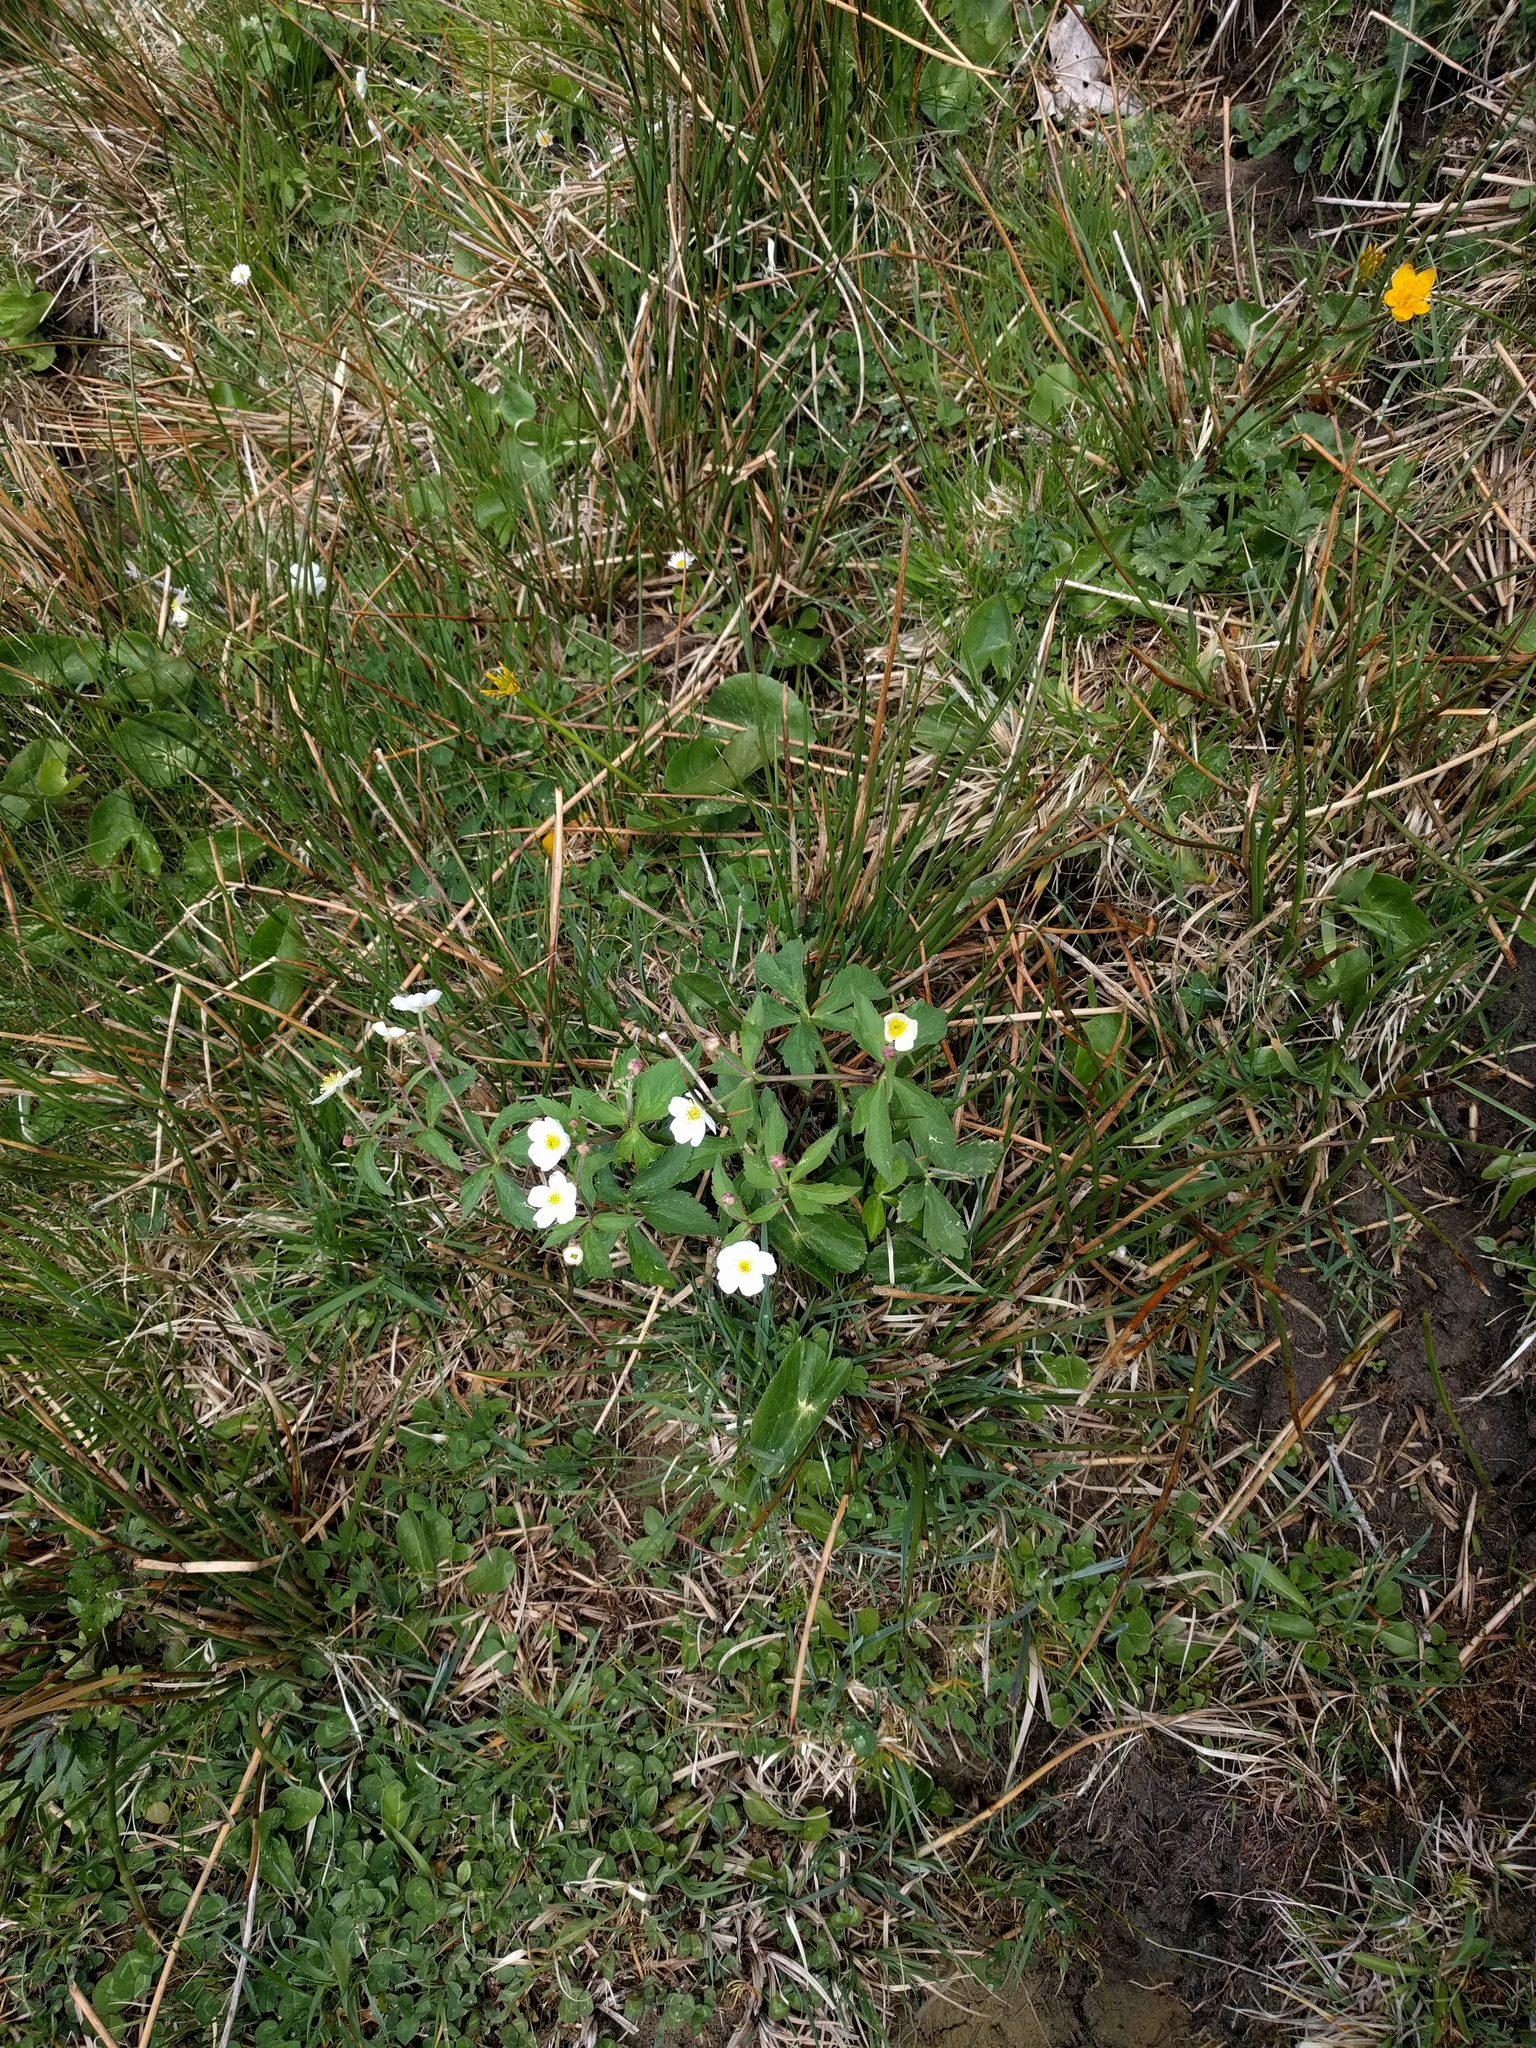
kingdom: Plantae
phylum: Tracheophyta
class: Magnoliopsida
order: Ranunculales
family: Ranunculaceae
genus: Anemone
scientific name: Anemone nemorosa
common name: Wood anemone
